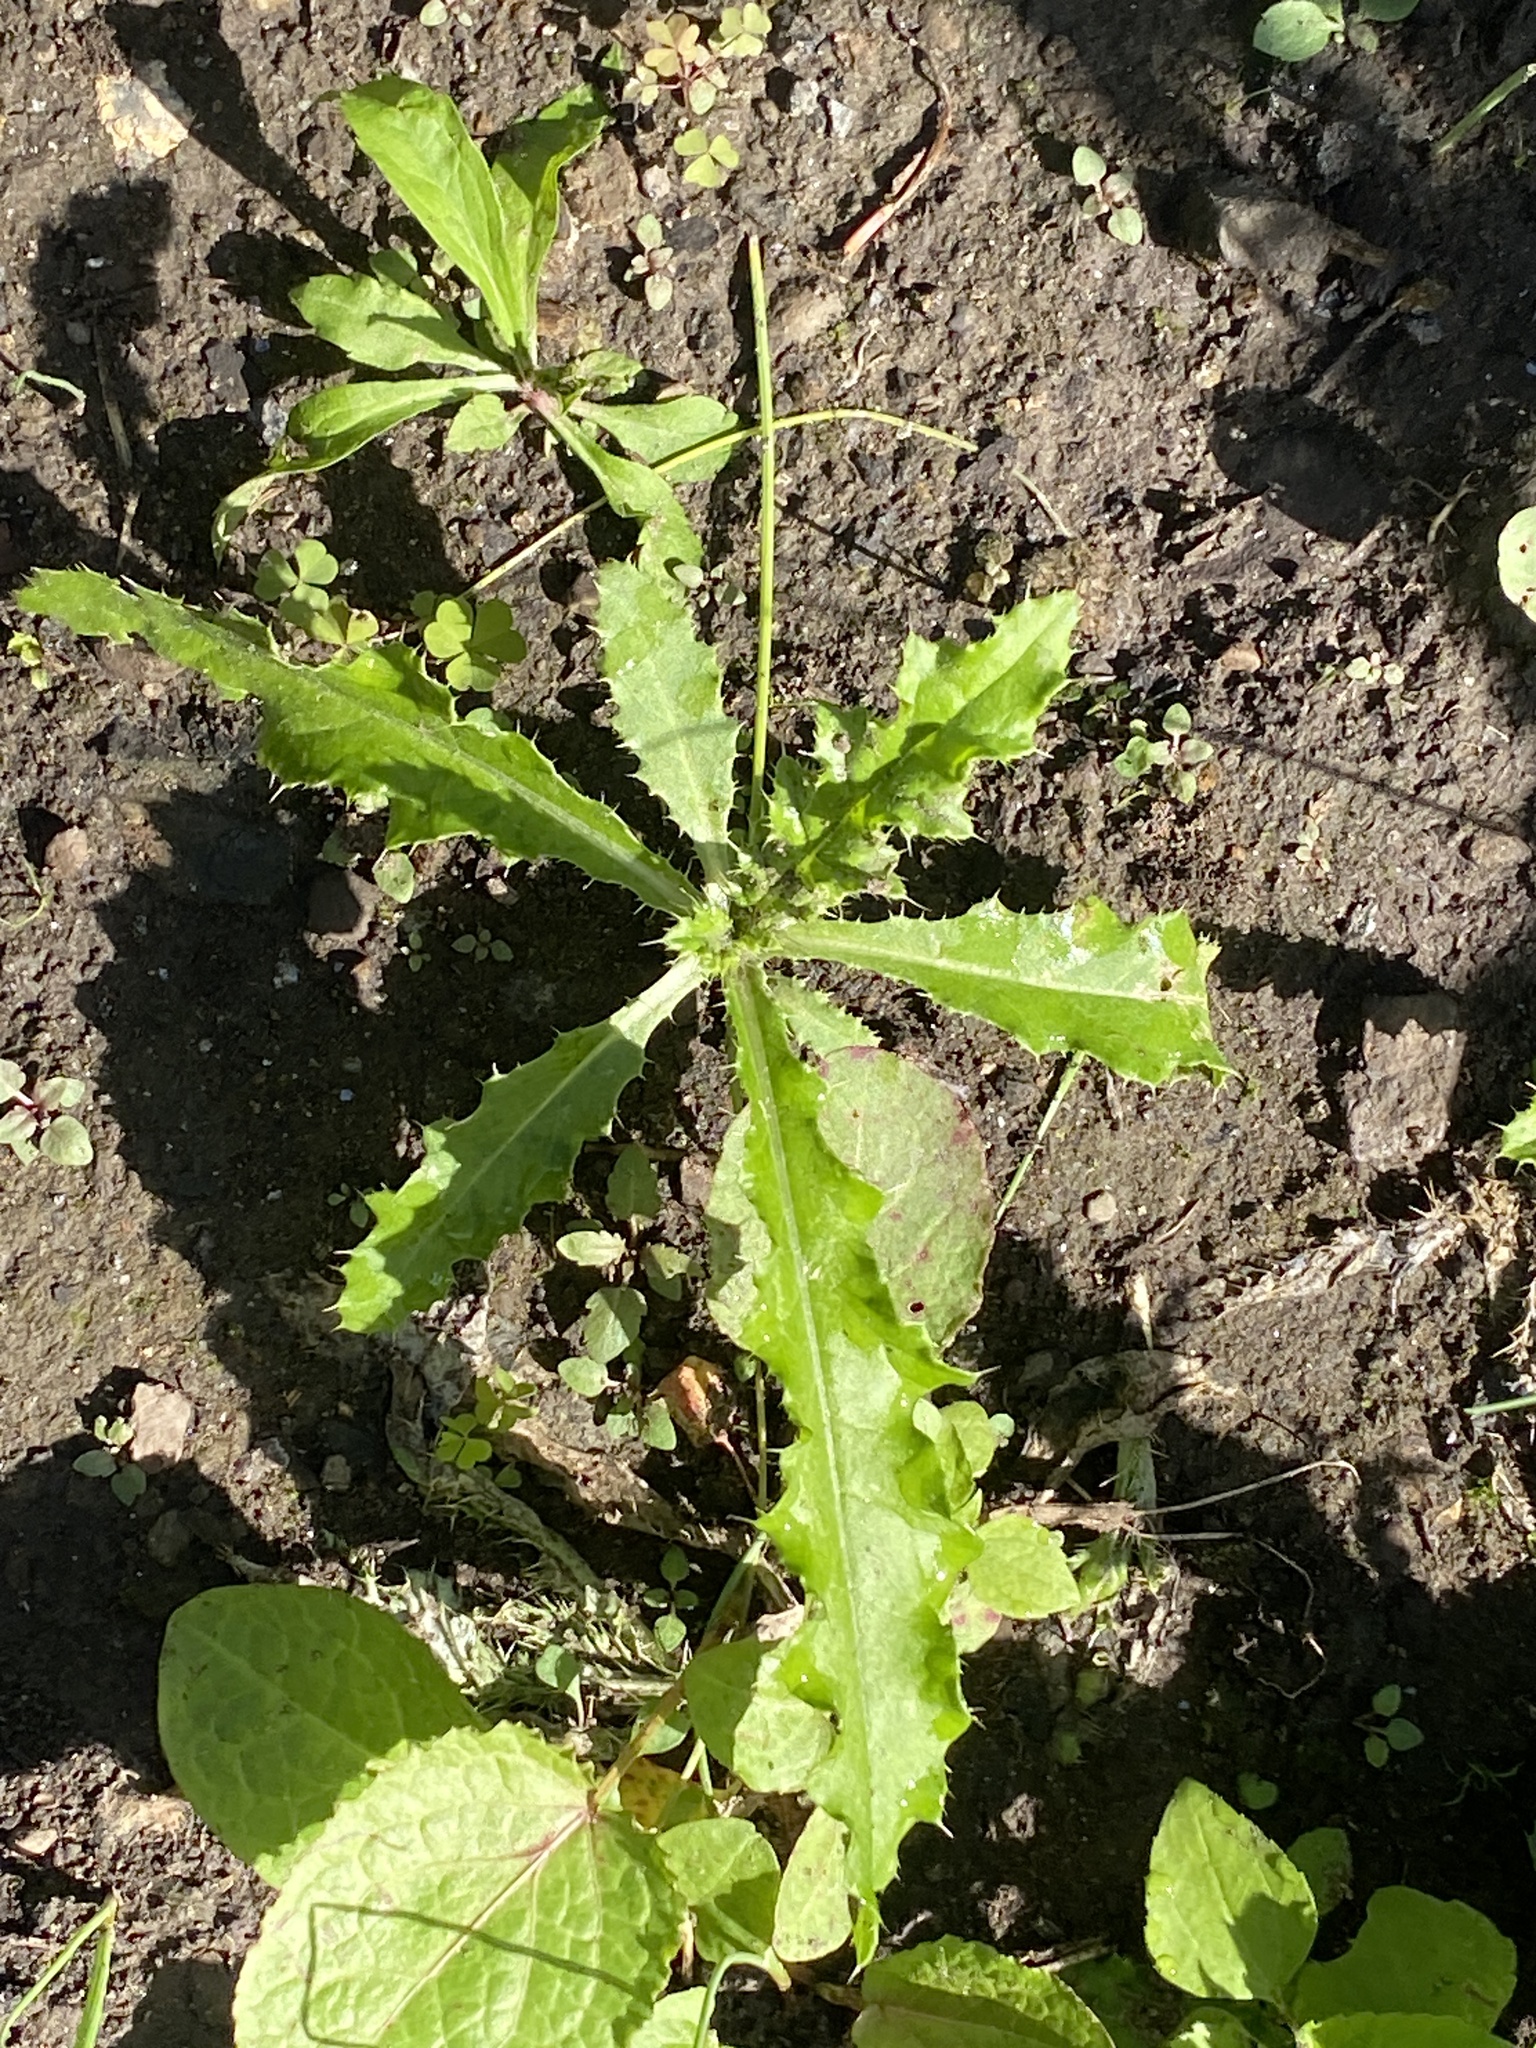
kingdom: Plantae
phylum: Tracheophyta
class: Magnoliopsida
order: Asterales
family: Asteraceae
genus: Cirsium
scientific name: Cirsium arvense
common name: Creeping thistle
